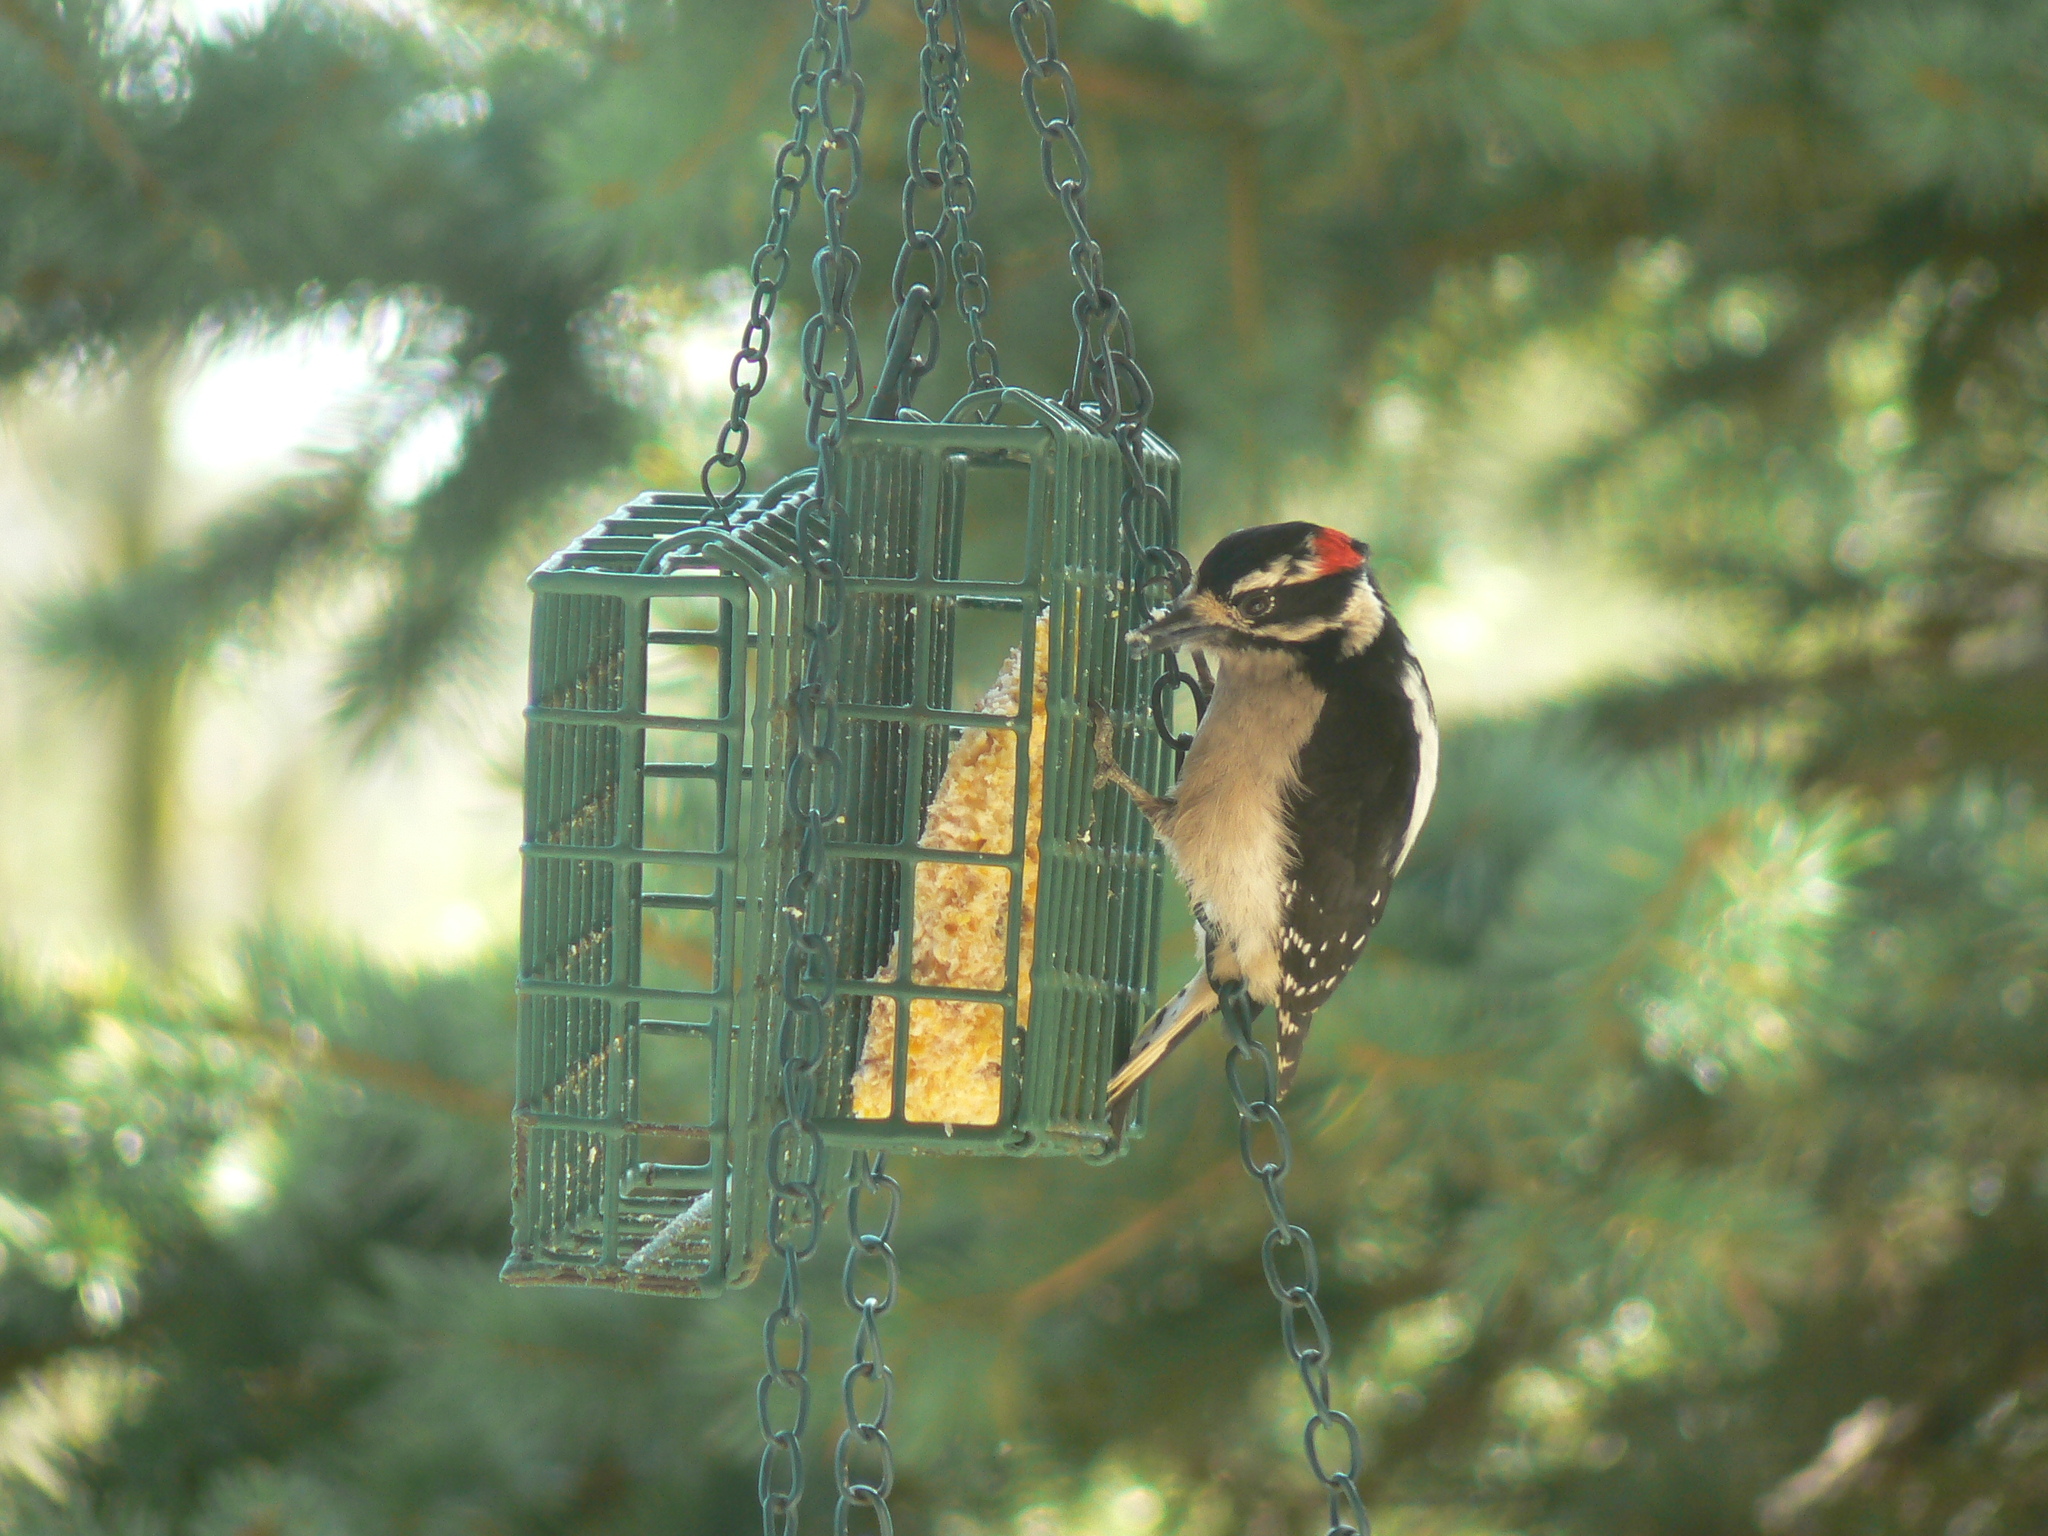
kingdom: Animalia
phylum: Chordata
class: Aves
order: Piciformes
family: Picidae
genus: Dryobates
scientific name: Dryobates pubescens
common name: Downy woodpecker
